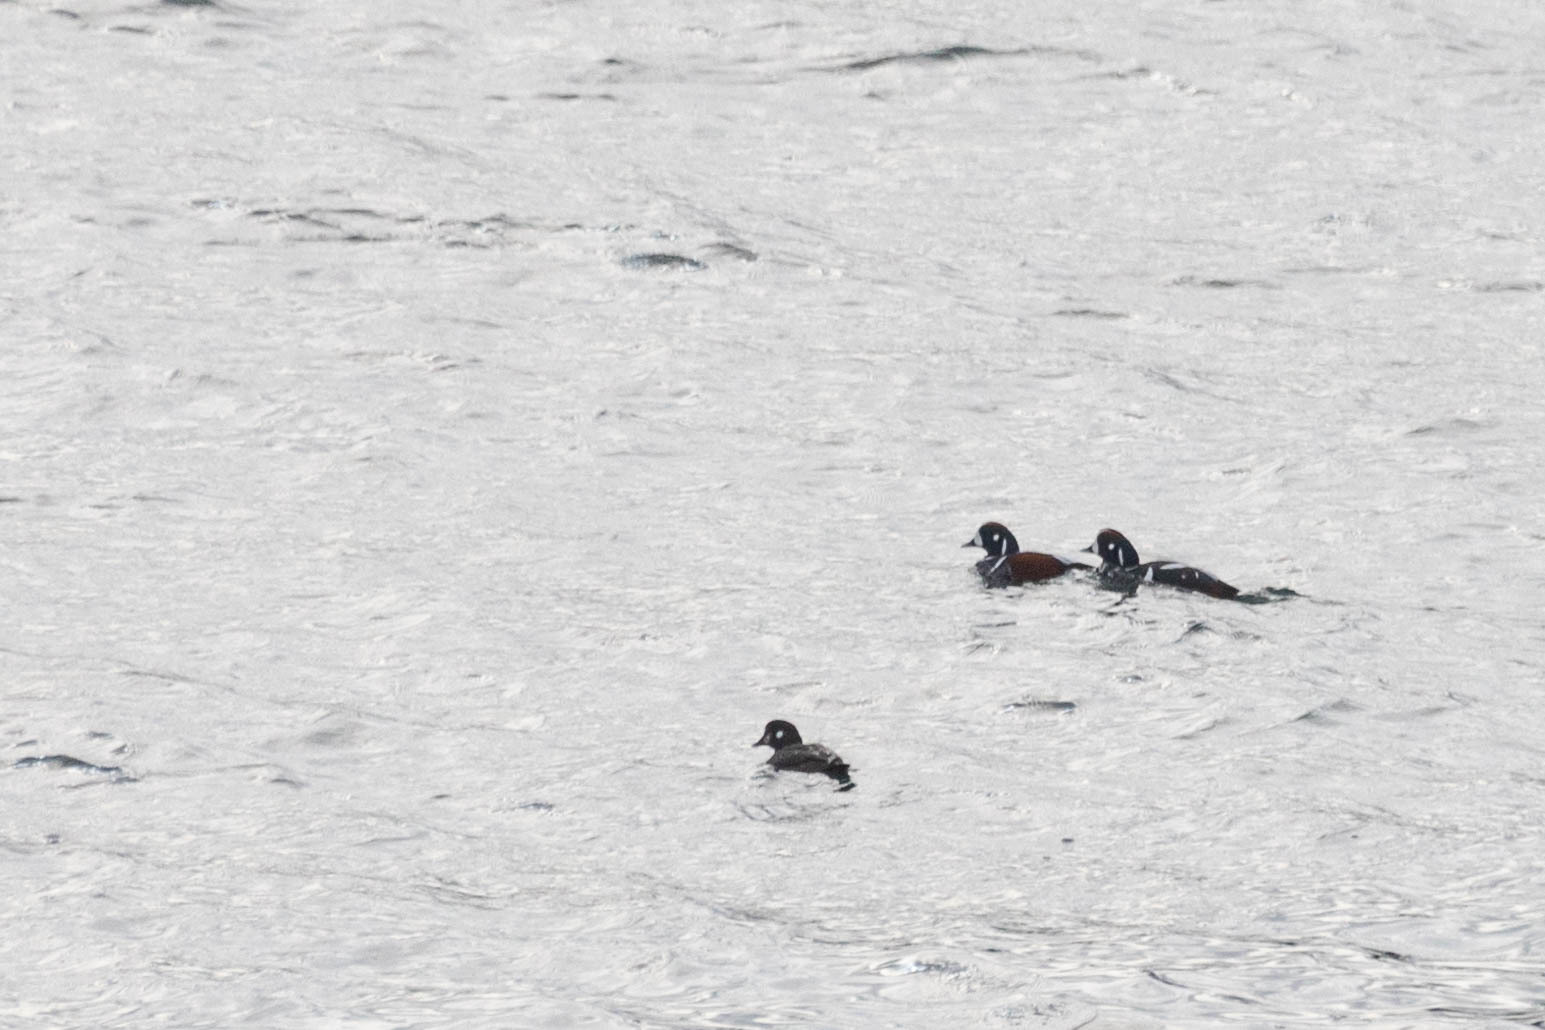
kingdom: Animalia
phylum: Chordata
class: Aves
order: Anseriformes
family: Anatidae
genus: Histrionicus
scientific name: Histrionicus histrionicus
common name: Harlequin duck
